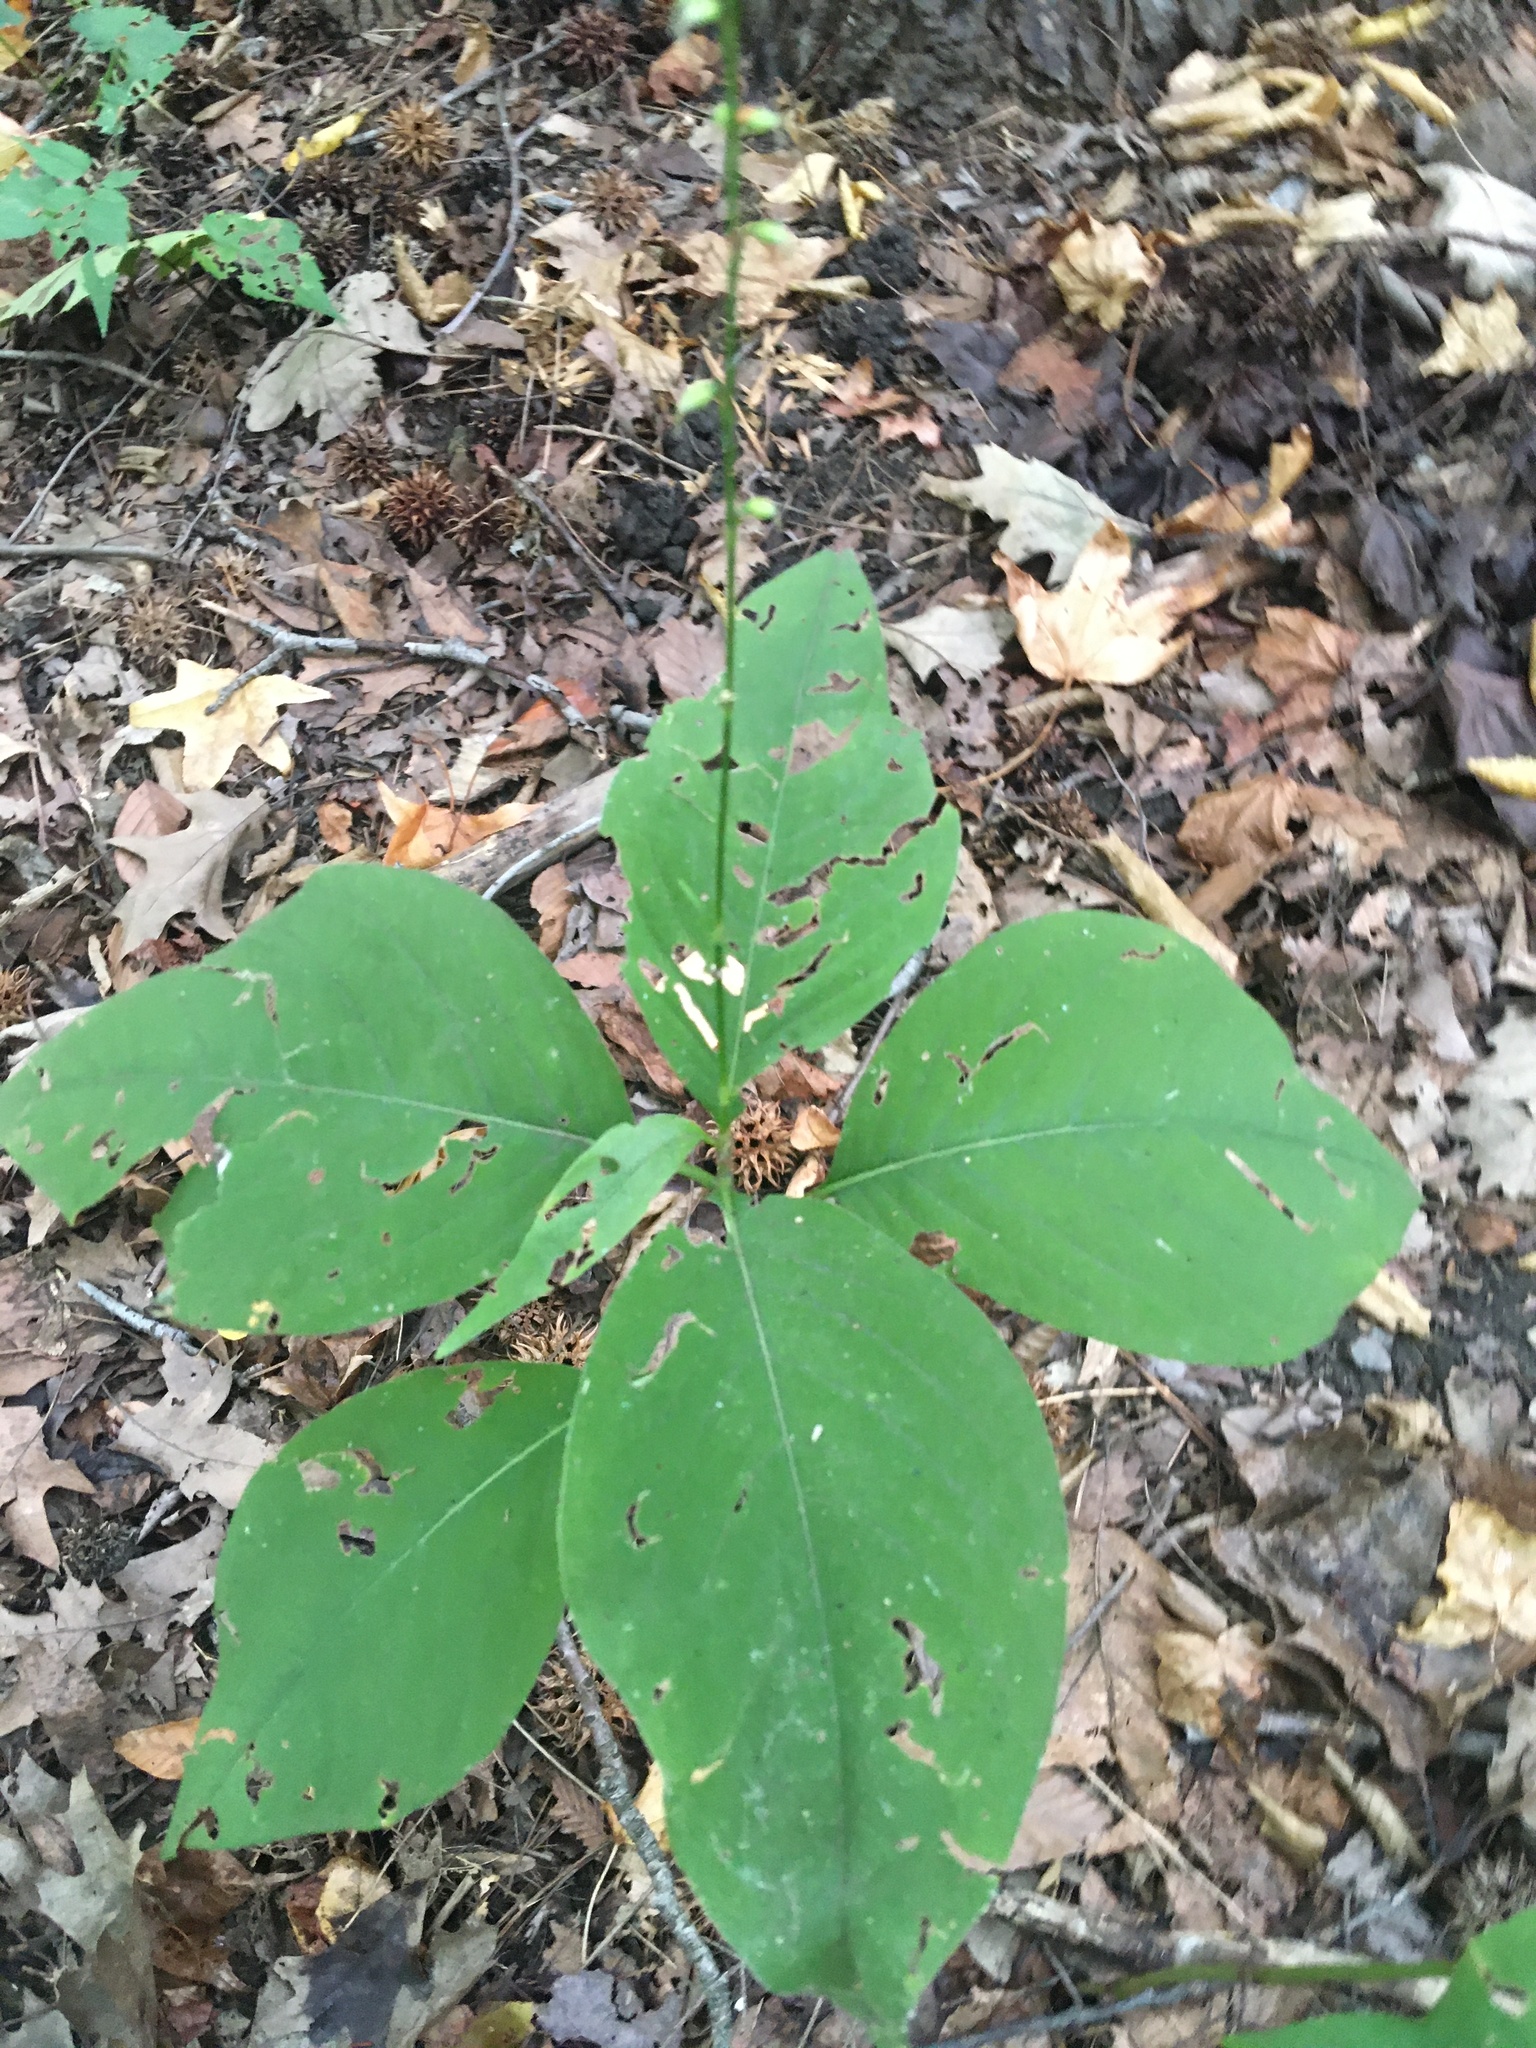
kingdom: Plantae
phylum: Tracheophyta
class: Magnoliopsida
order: Caryophyllales
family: Polygonaceae
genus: Persicaria
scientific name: Persicaria virginiana
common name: Jumpseed
